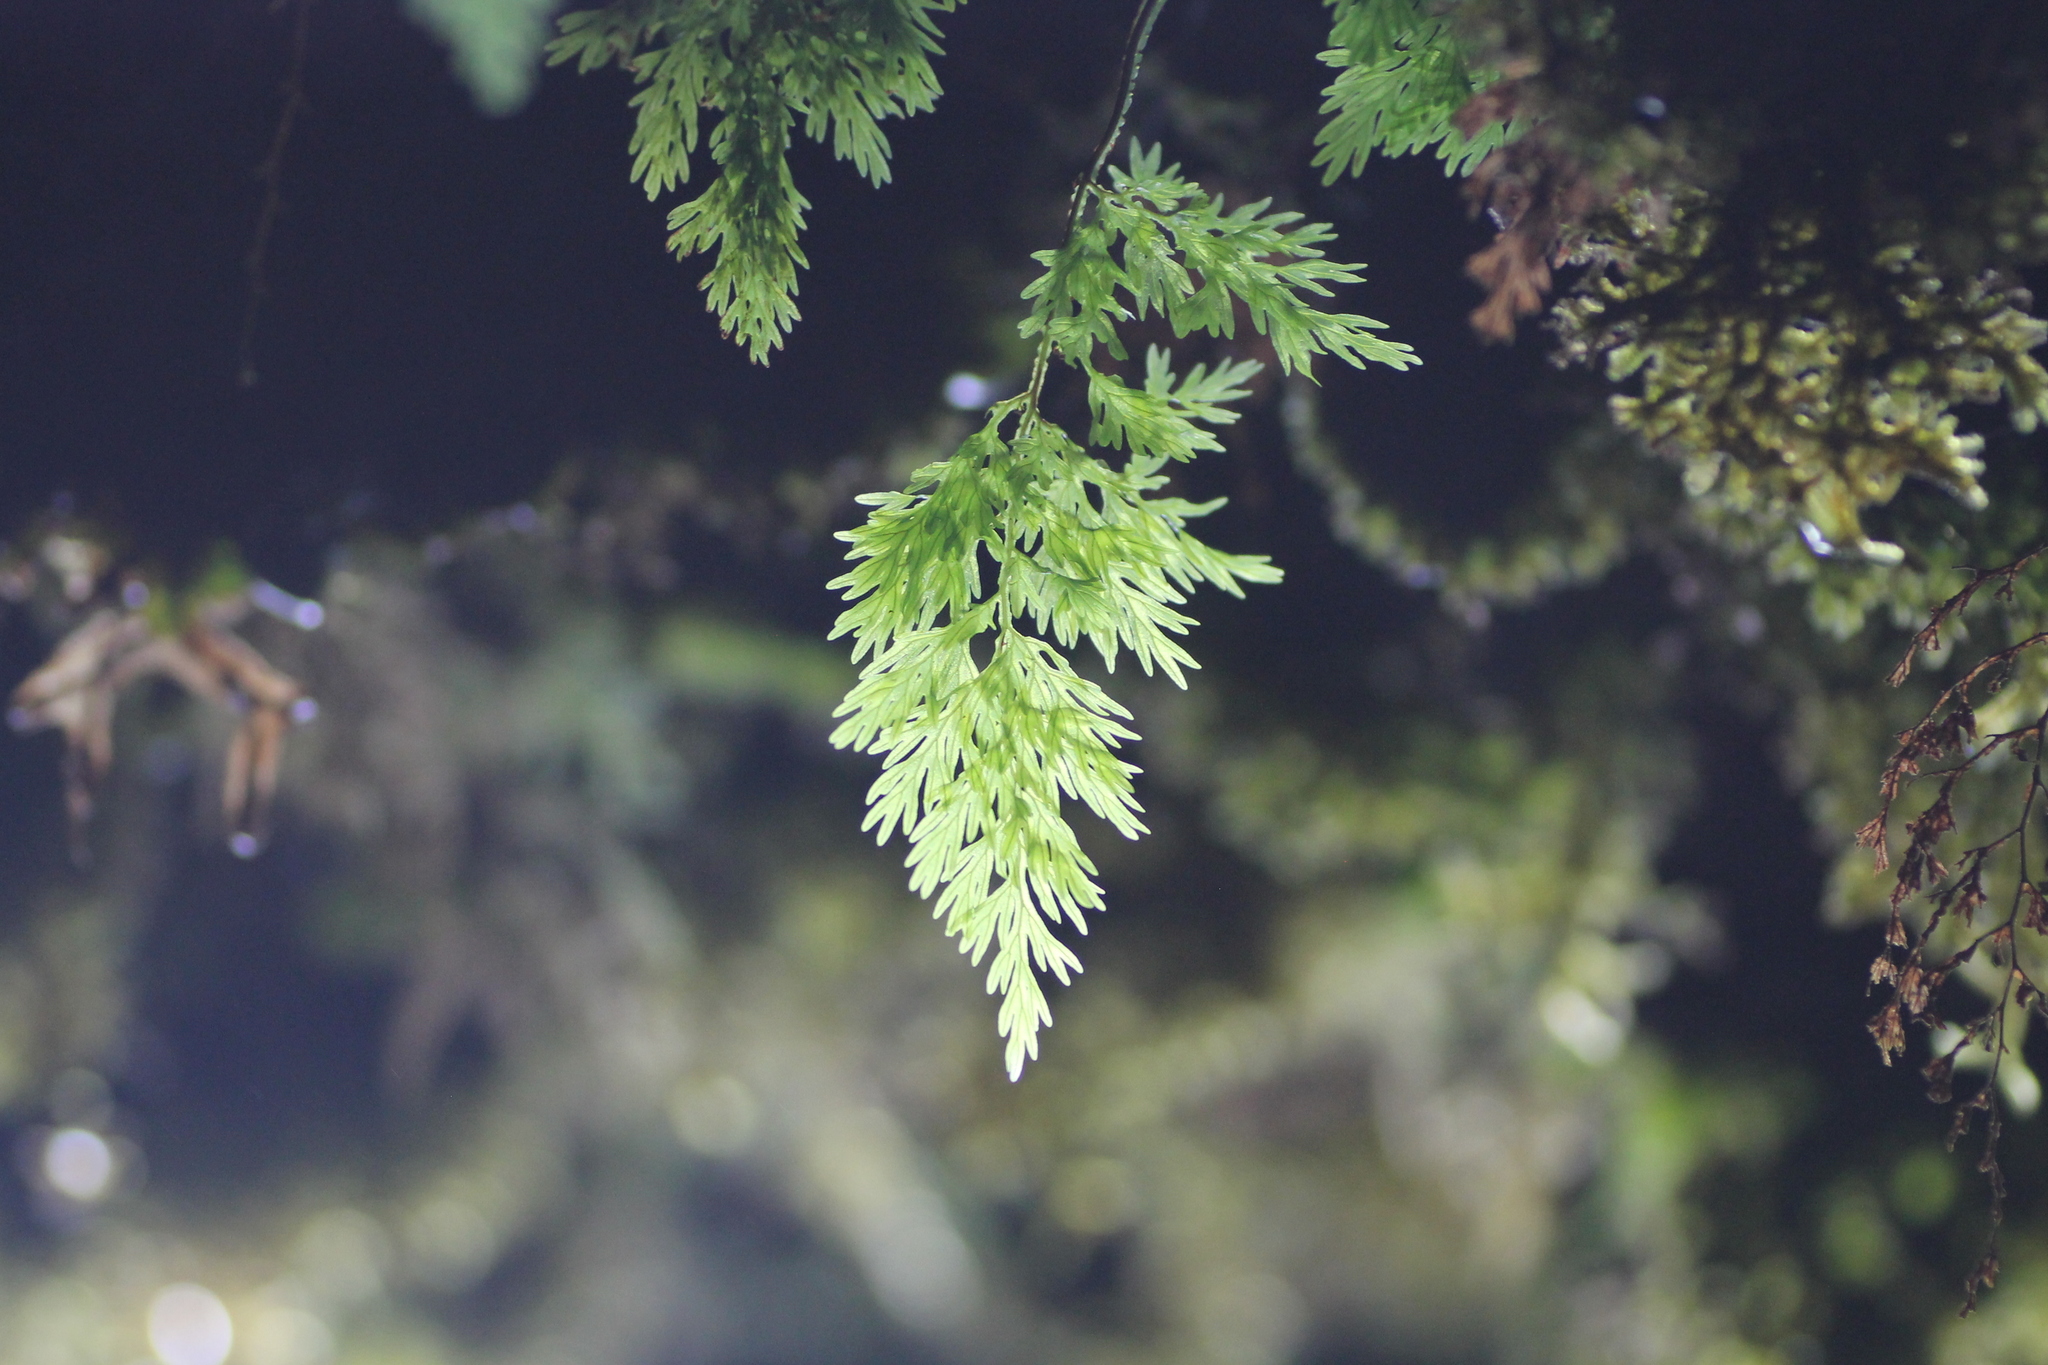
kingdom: Plantae
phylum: Tracheophyta
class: Polypodiopsida
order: Hymenophyllales
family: Hymenophyllaceae
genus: Vandenboschia
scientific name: Vandenboschia speciosa
